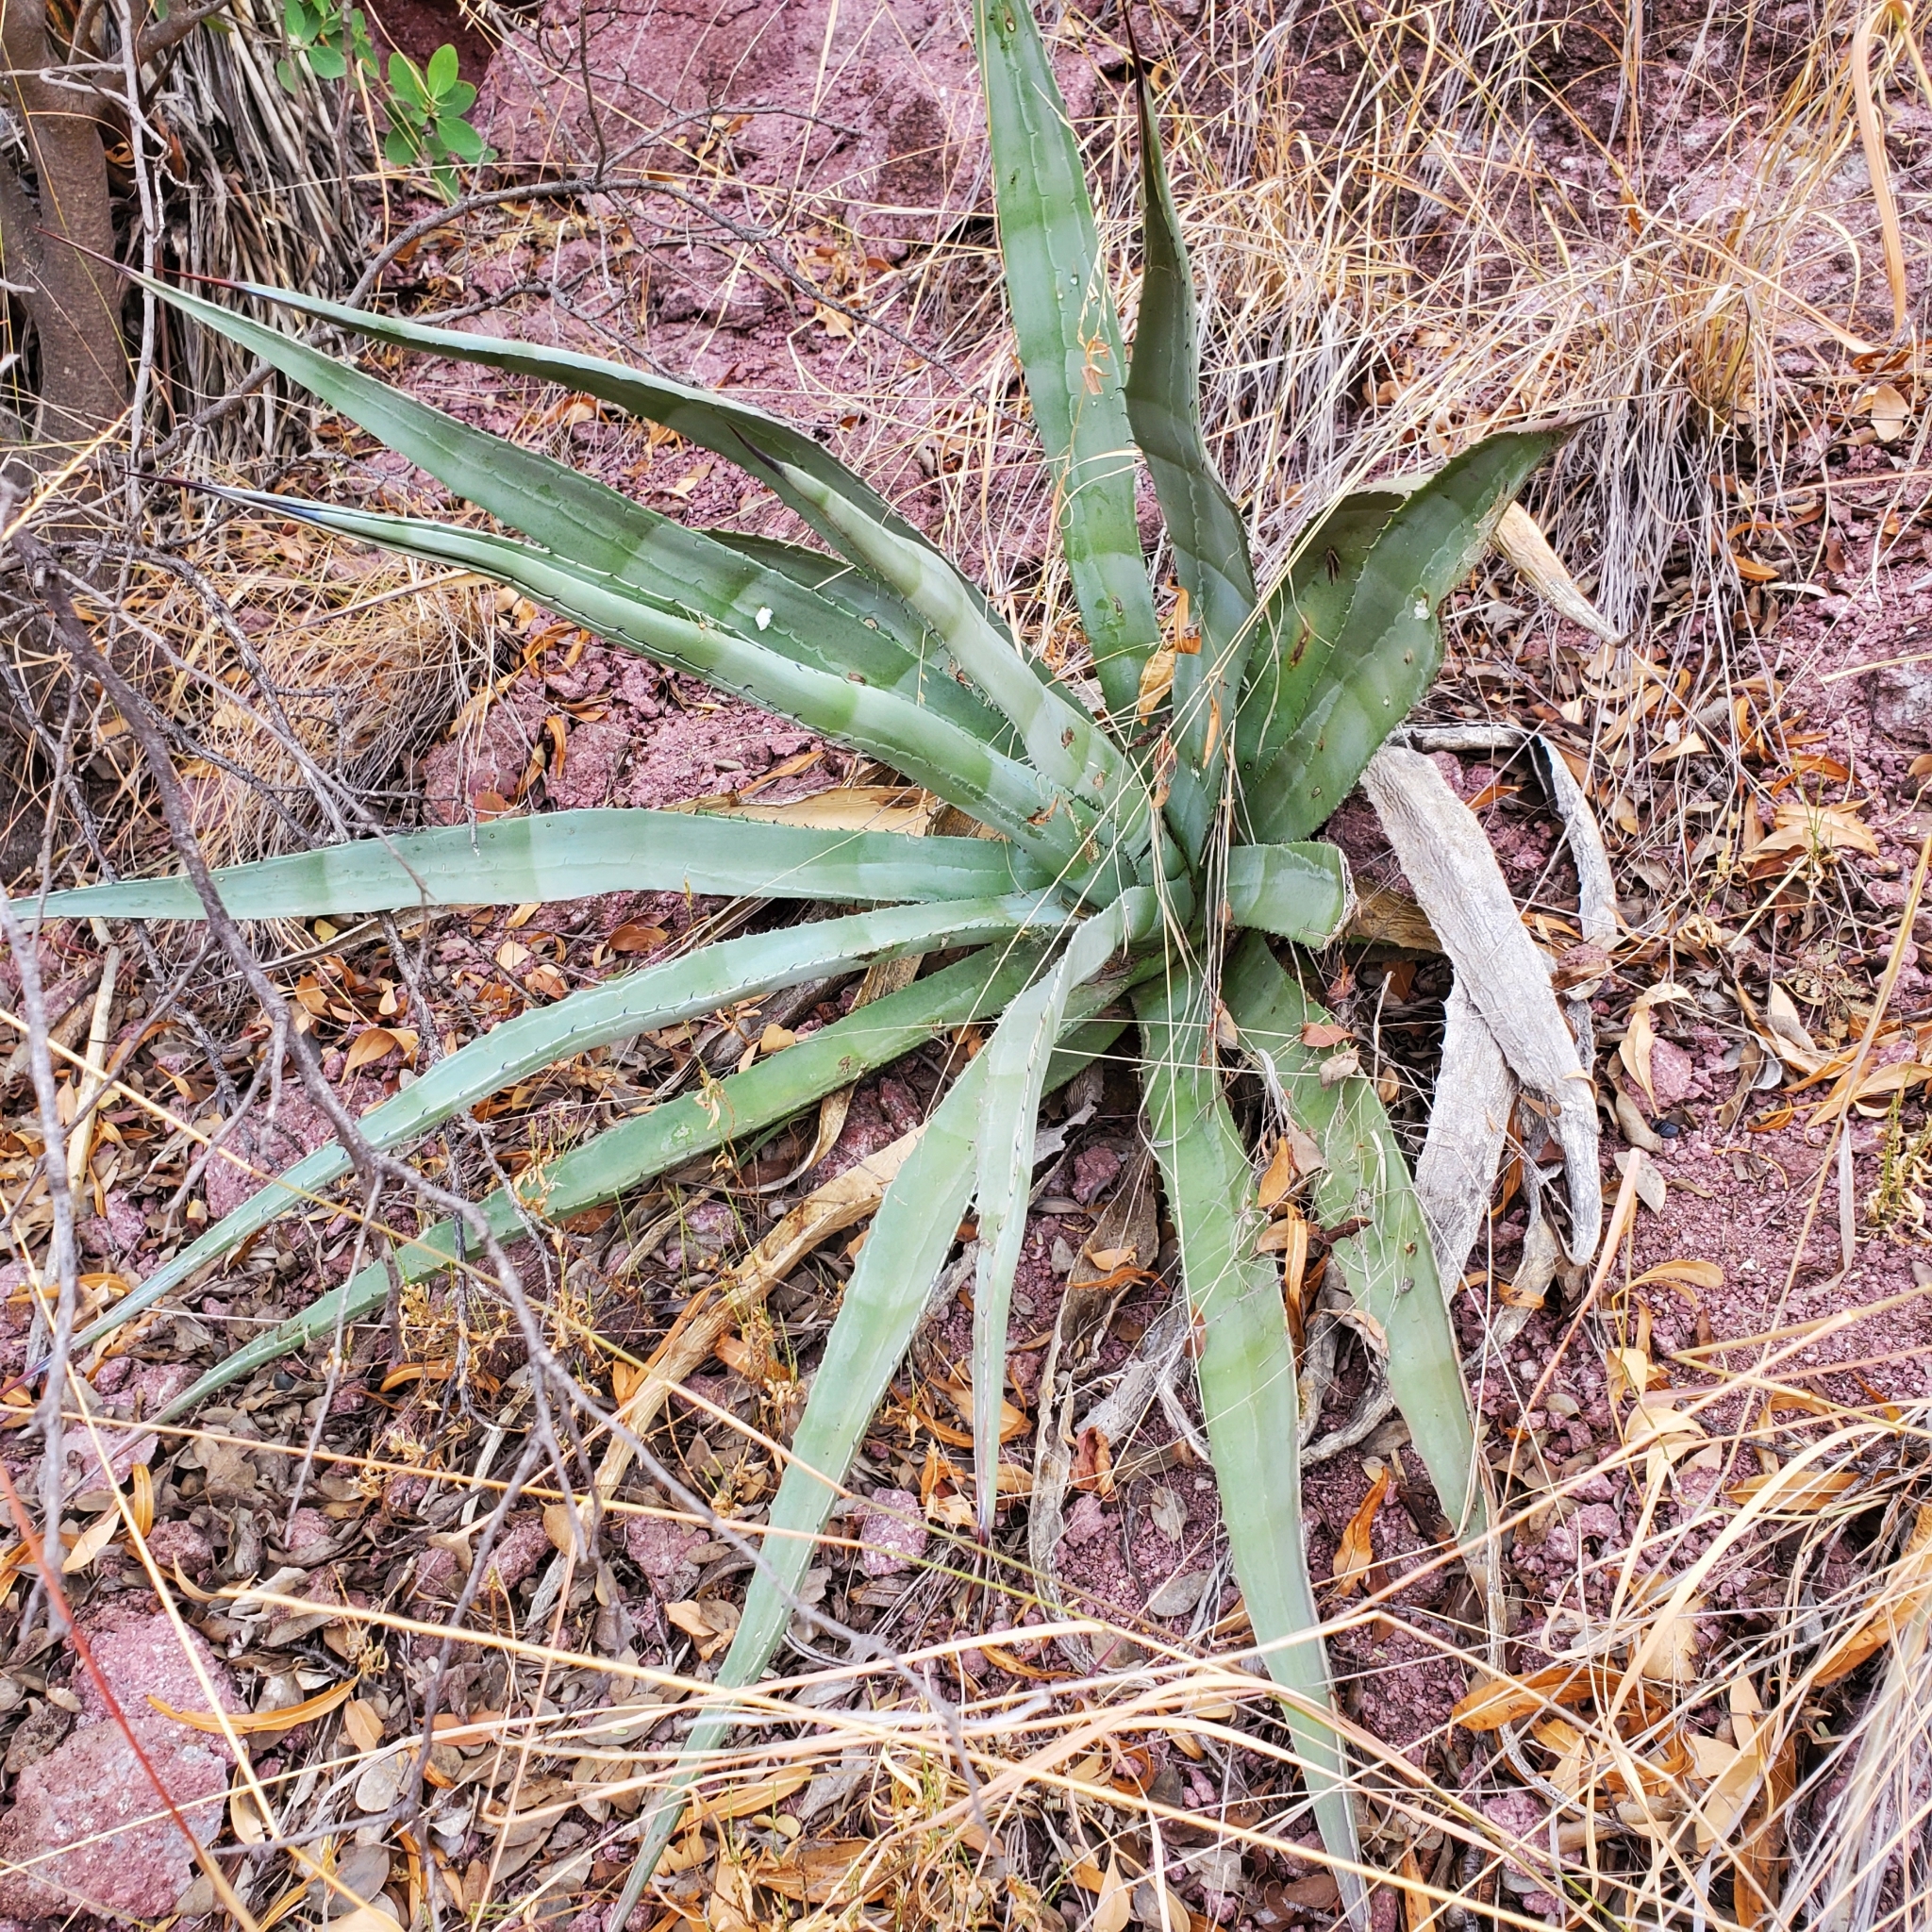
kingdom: Plantae
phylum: Tracheophyta
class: Liliopsida
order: Asparagales
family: Asparagaceae
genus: Agave
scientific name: Agave palmeri
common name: Palmer agave
